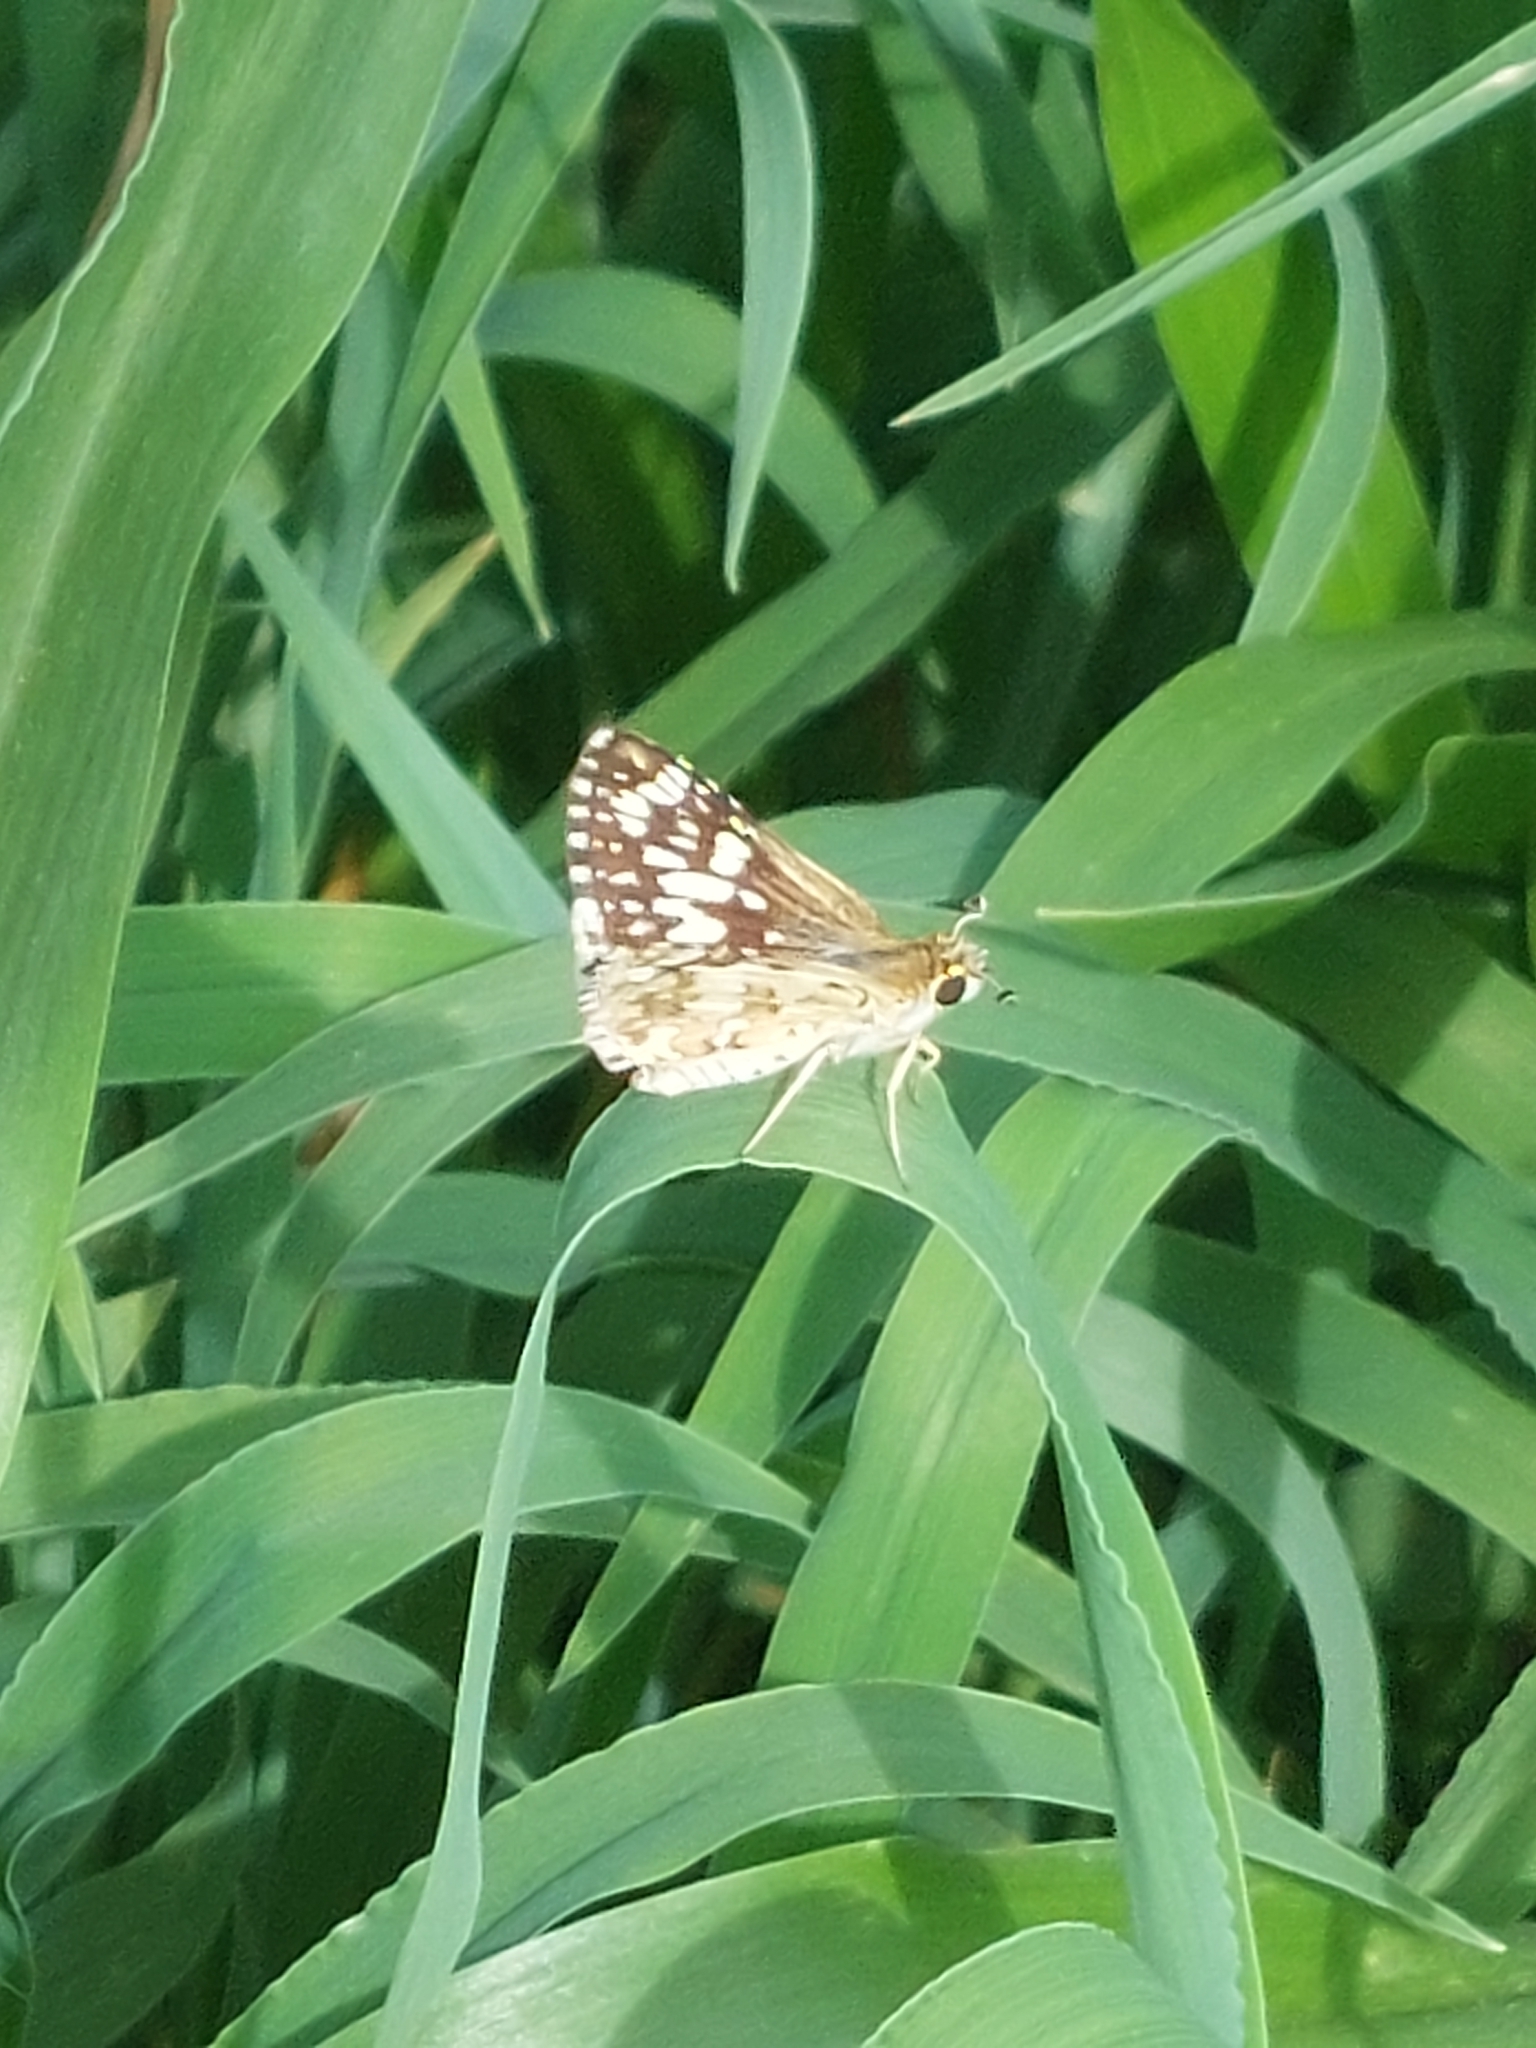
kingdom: Animalia
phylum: Arthropoda
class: Insecta
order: Lepidoptera
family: Hesperiidae
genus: Burnsius
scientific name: Burnsius albezens
